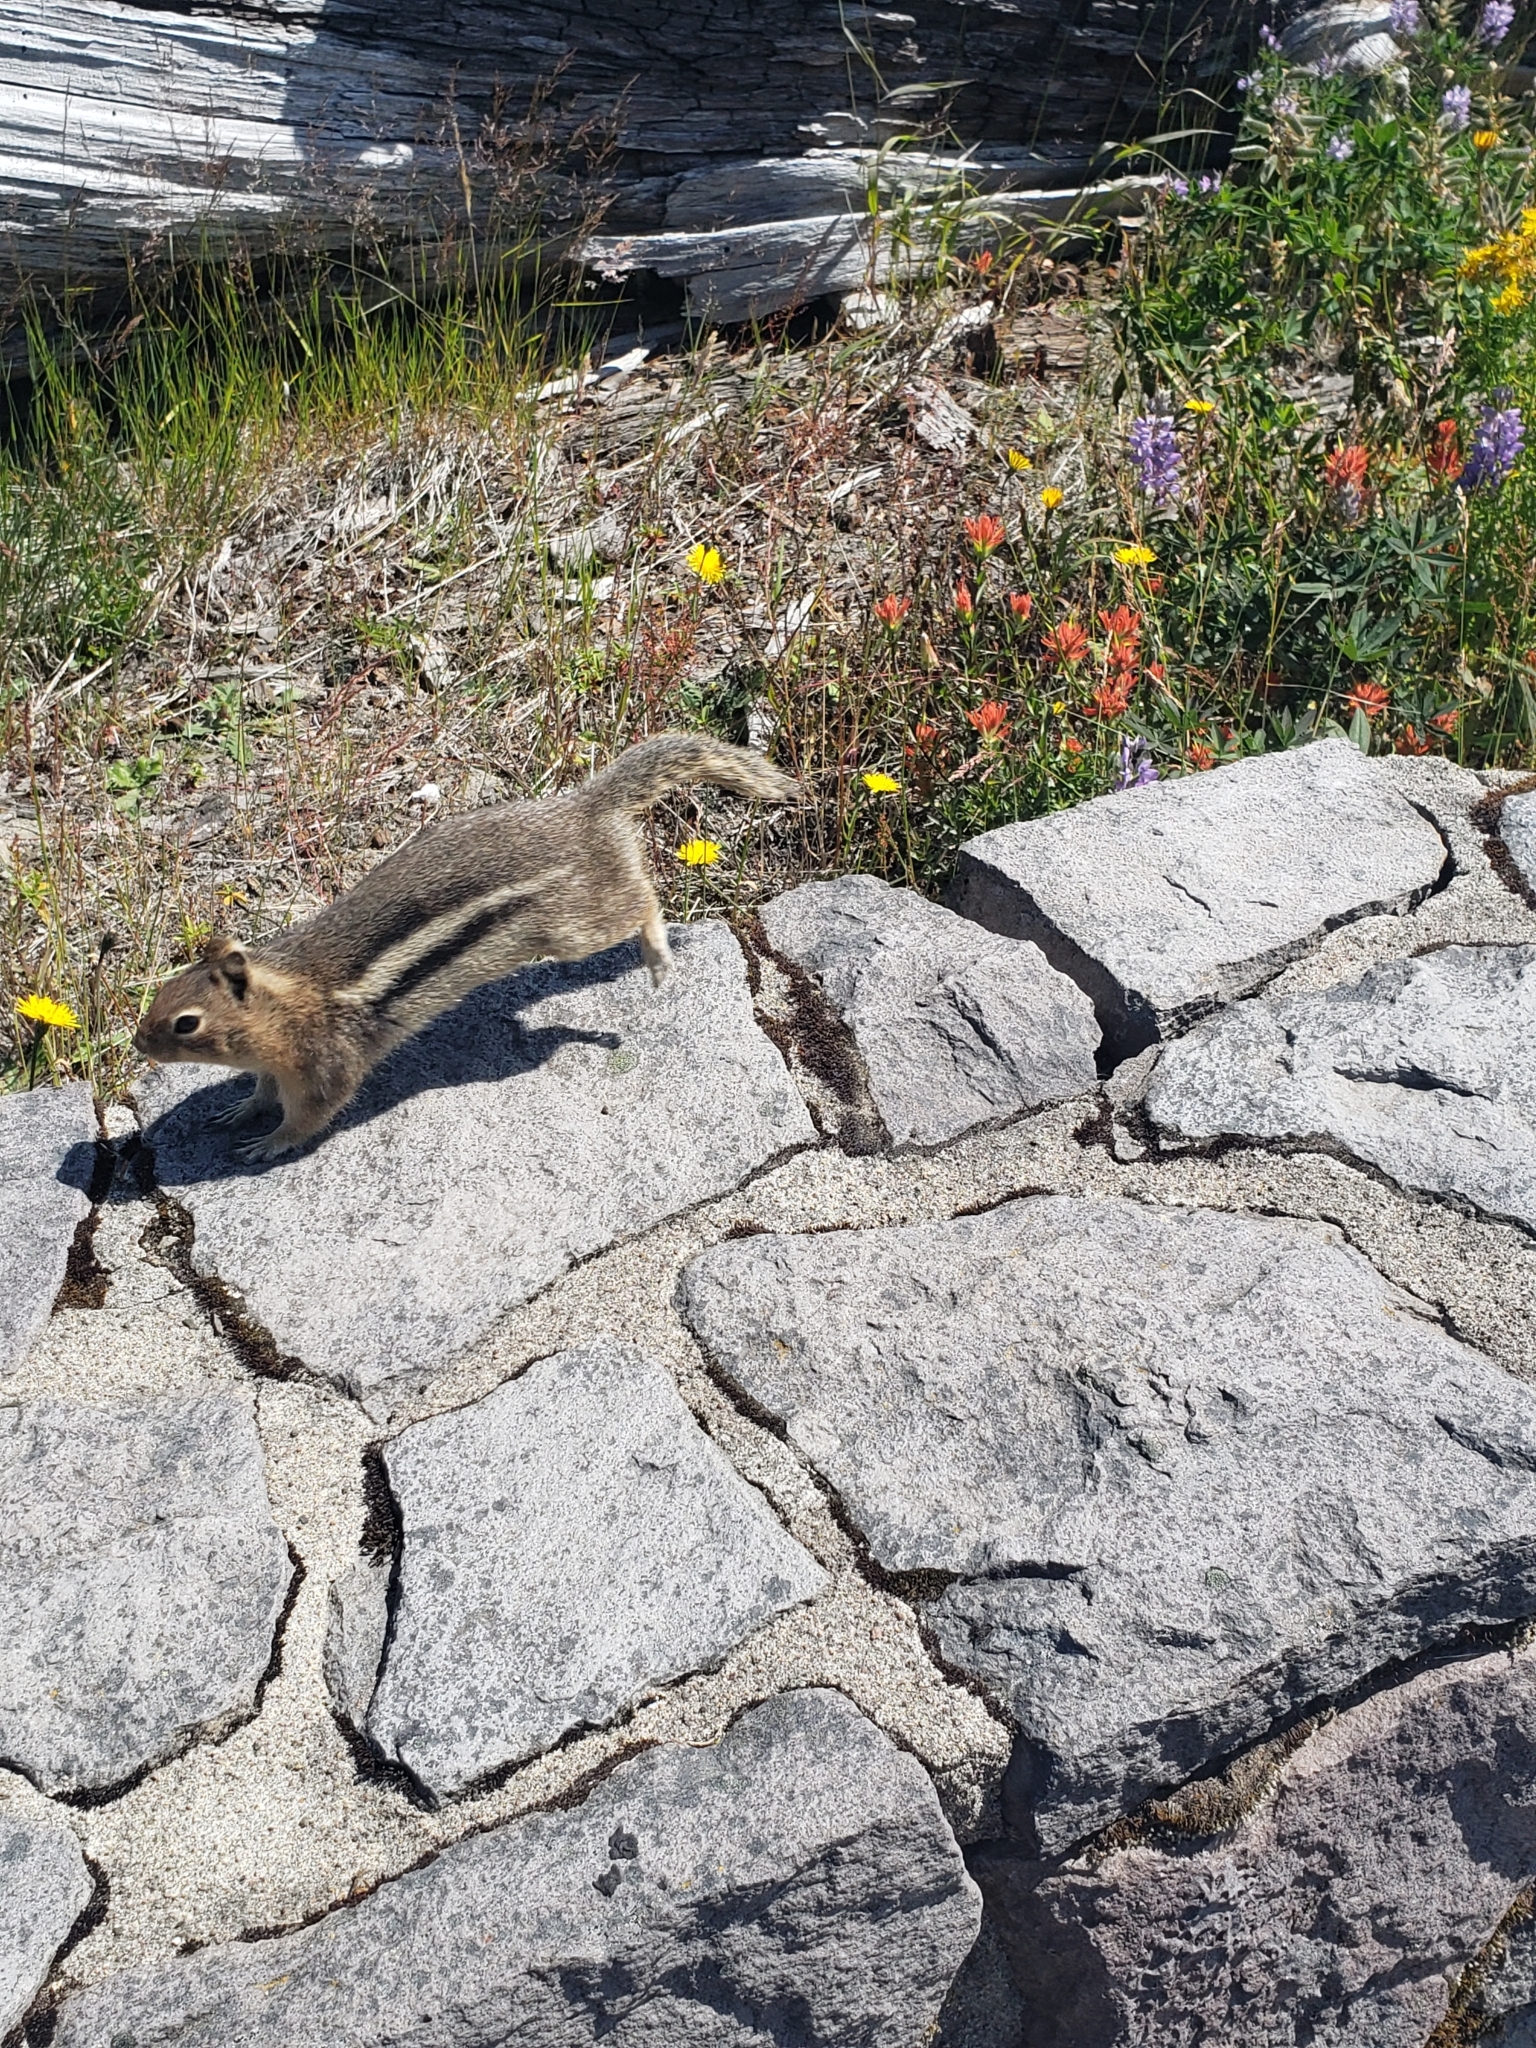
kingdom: Animalia
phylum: Chordata
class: Mammalia
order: Rodentia
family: Sciuridae
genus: Callospermophilus
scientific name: Callospermophilus saturatus
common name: Cascade golden-mantled ground squirrel
